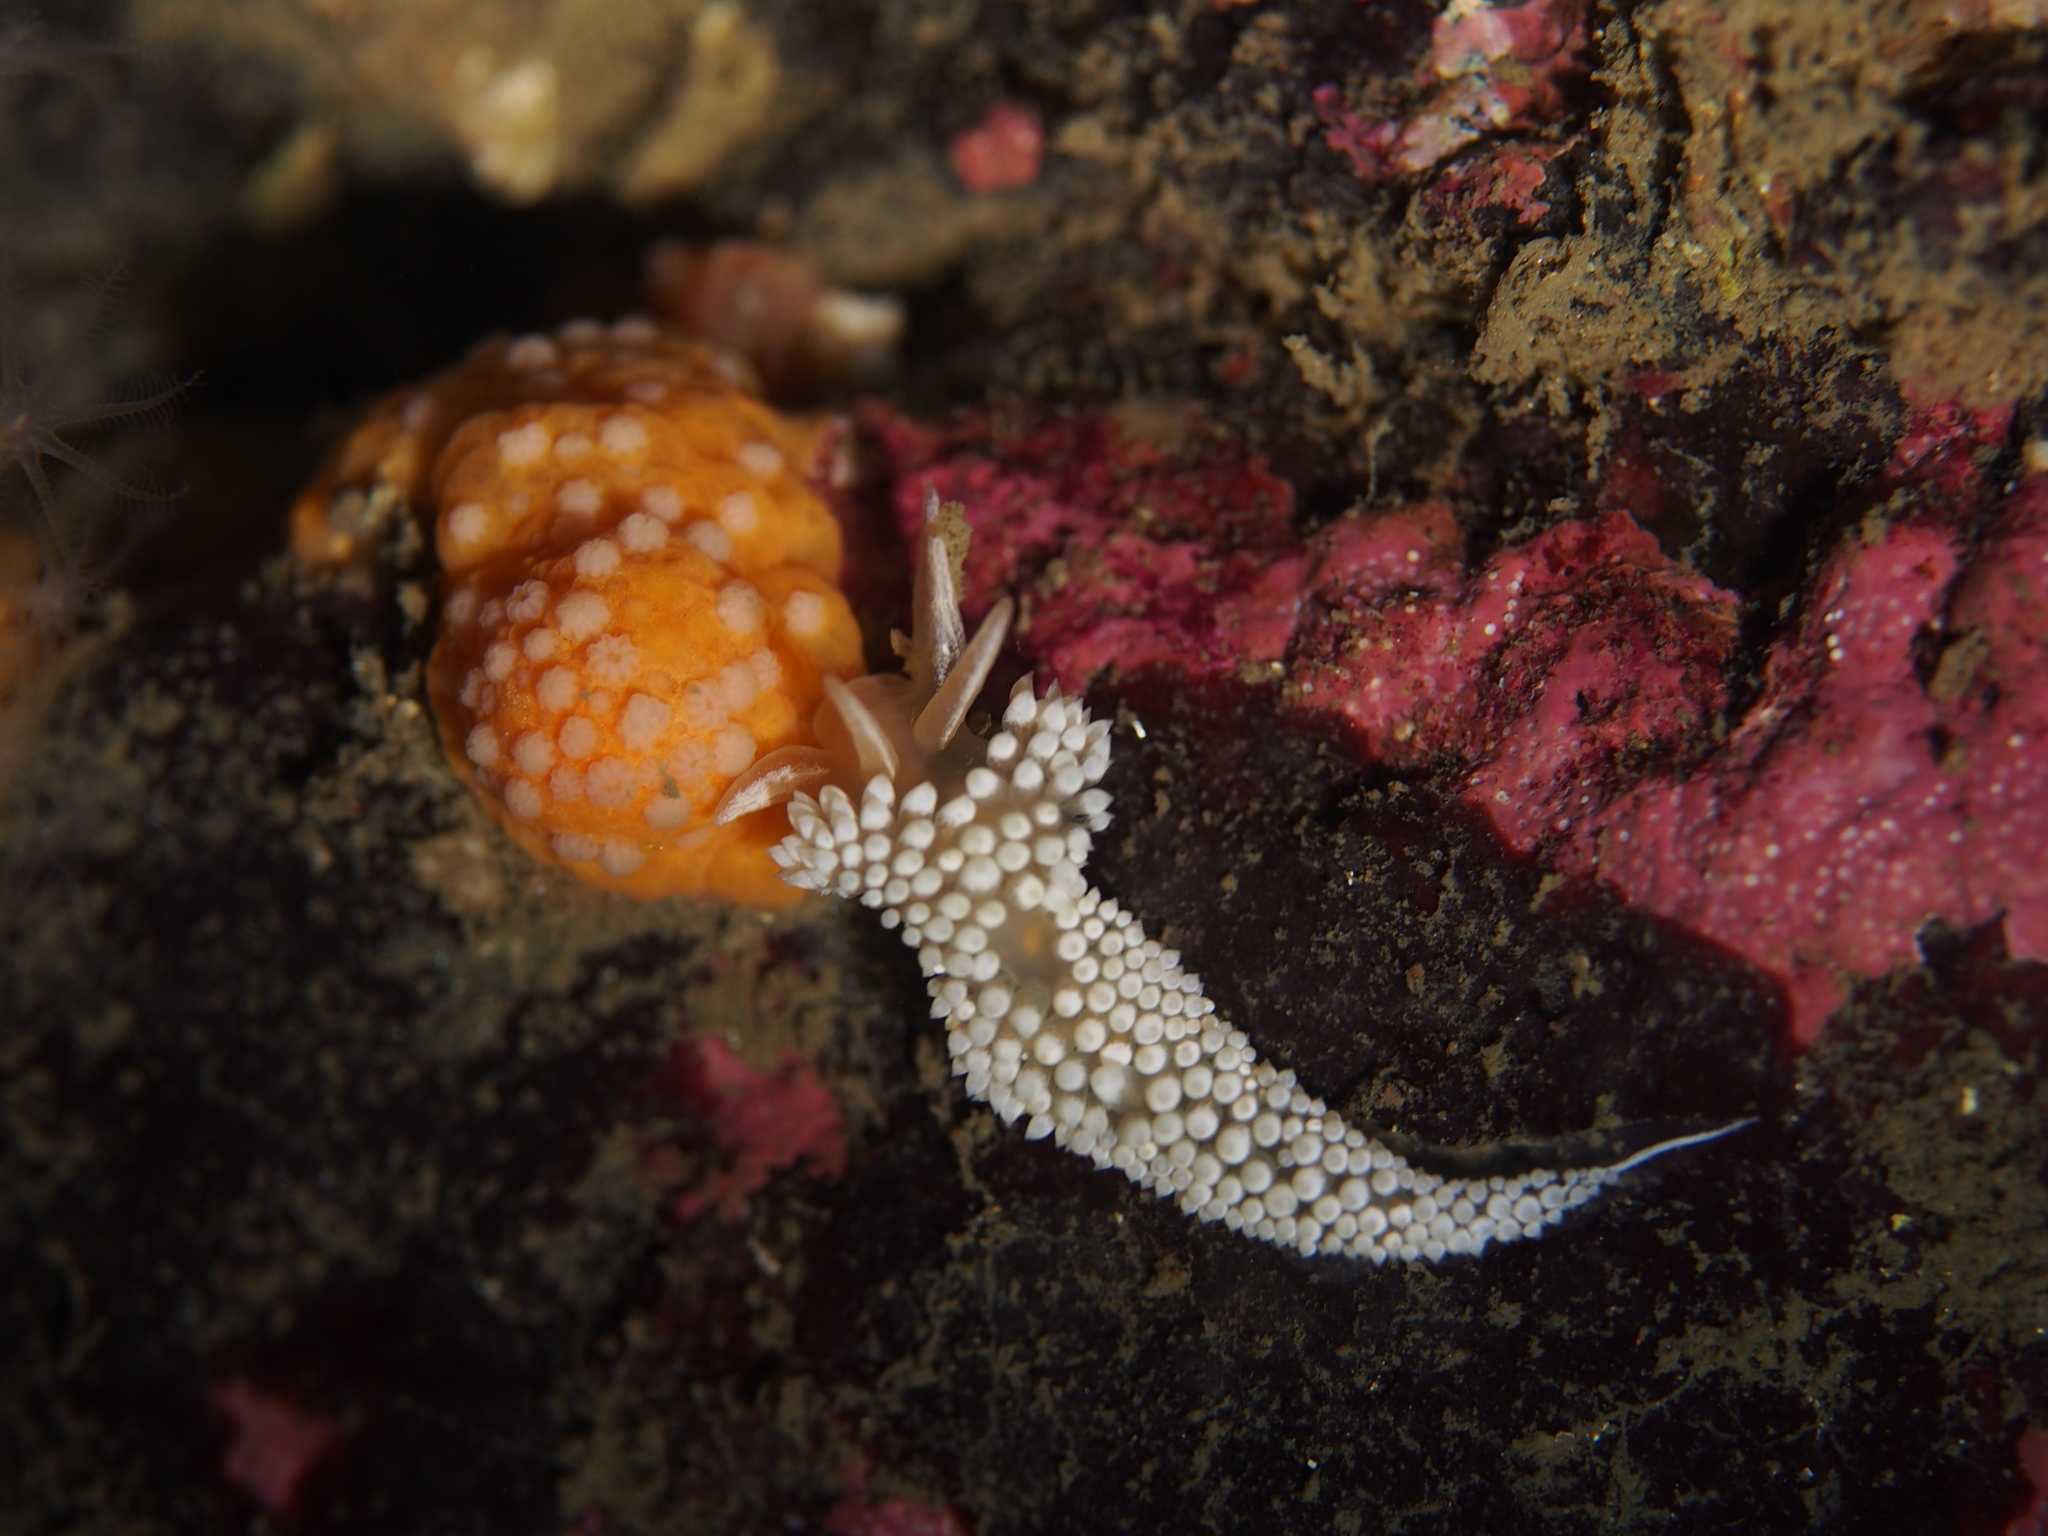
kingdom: Animalia
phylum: Mollusca
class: Gastropoda
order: Nudibranchia
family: Coryphellidae
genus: Coryphella
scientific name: Coryphella verrucosa
